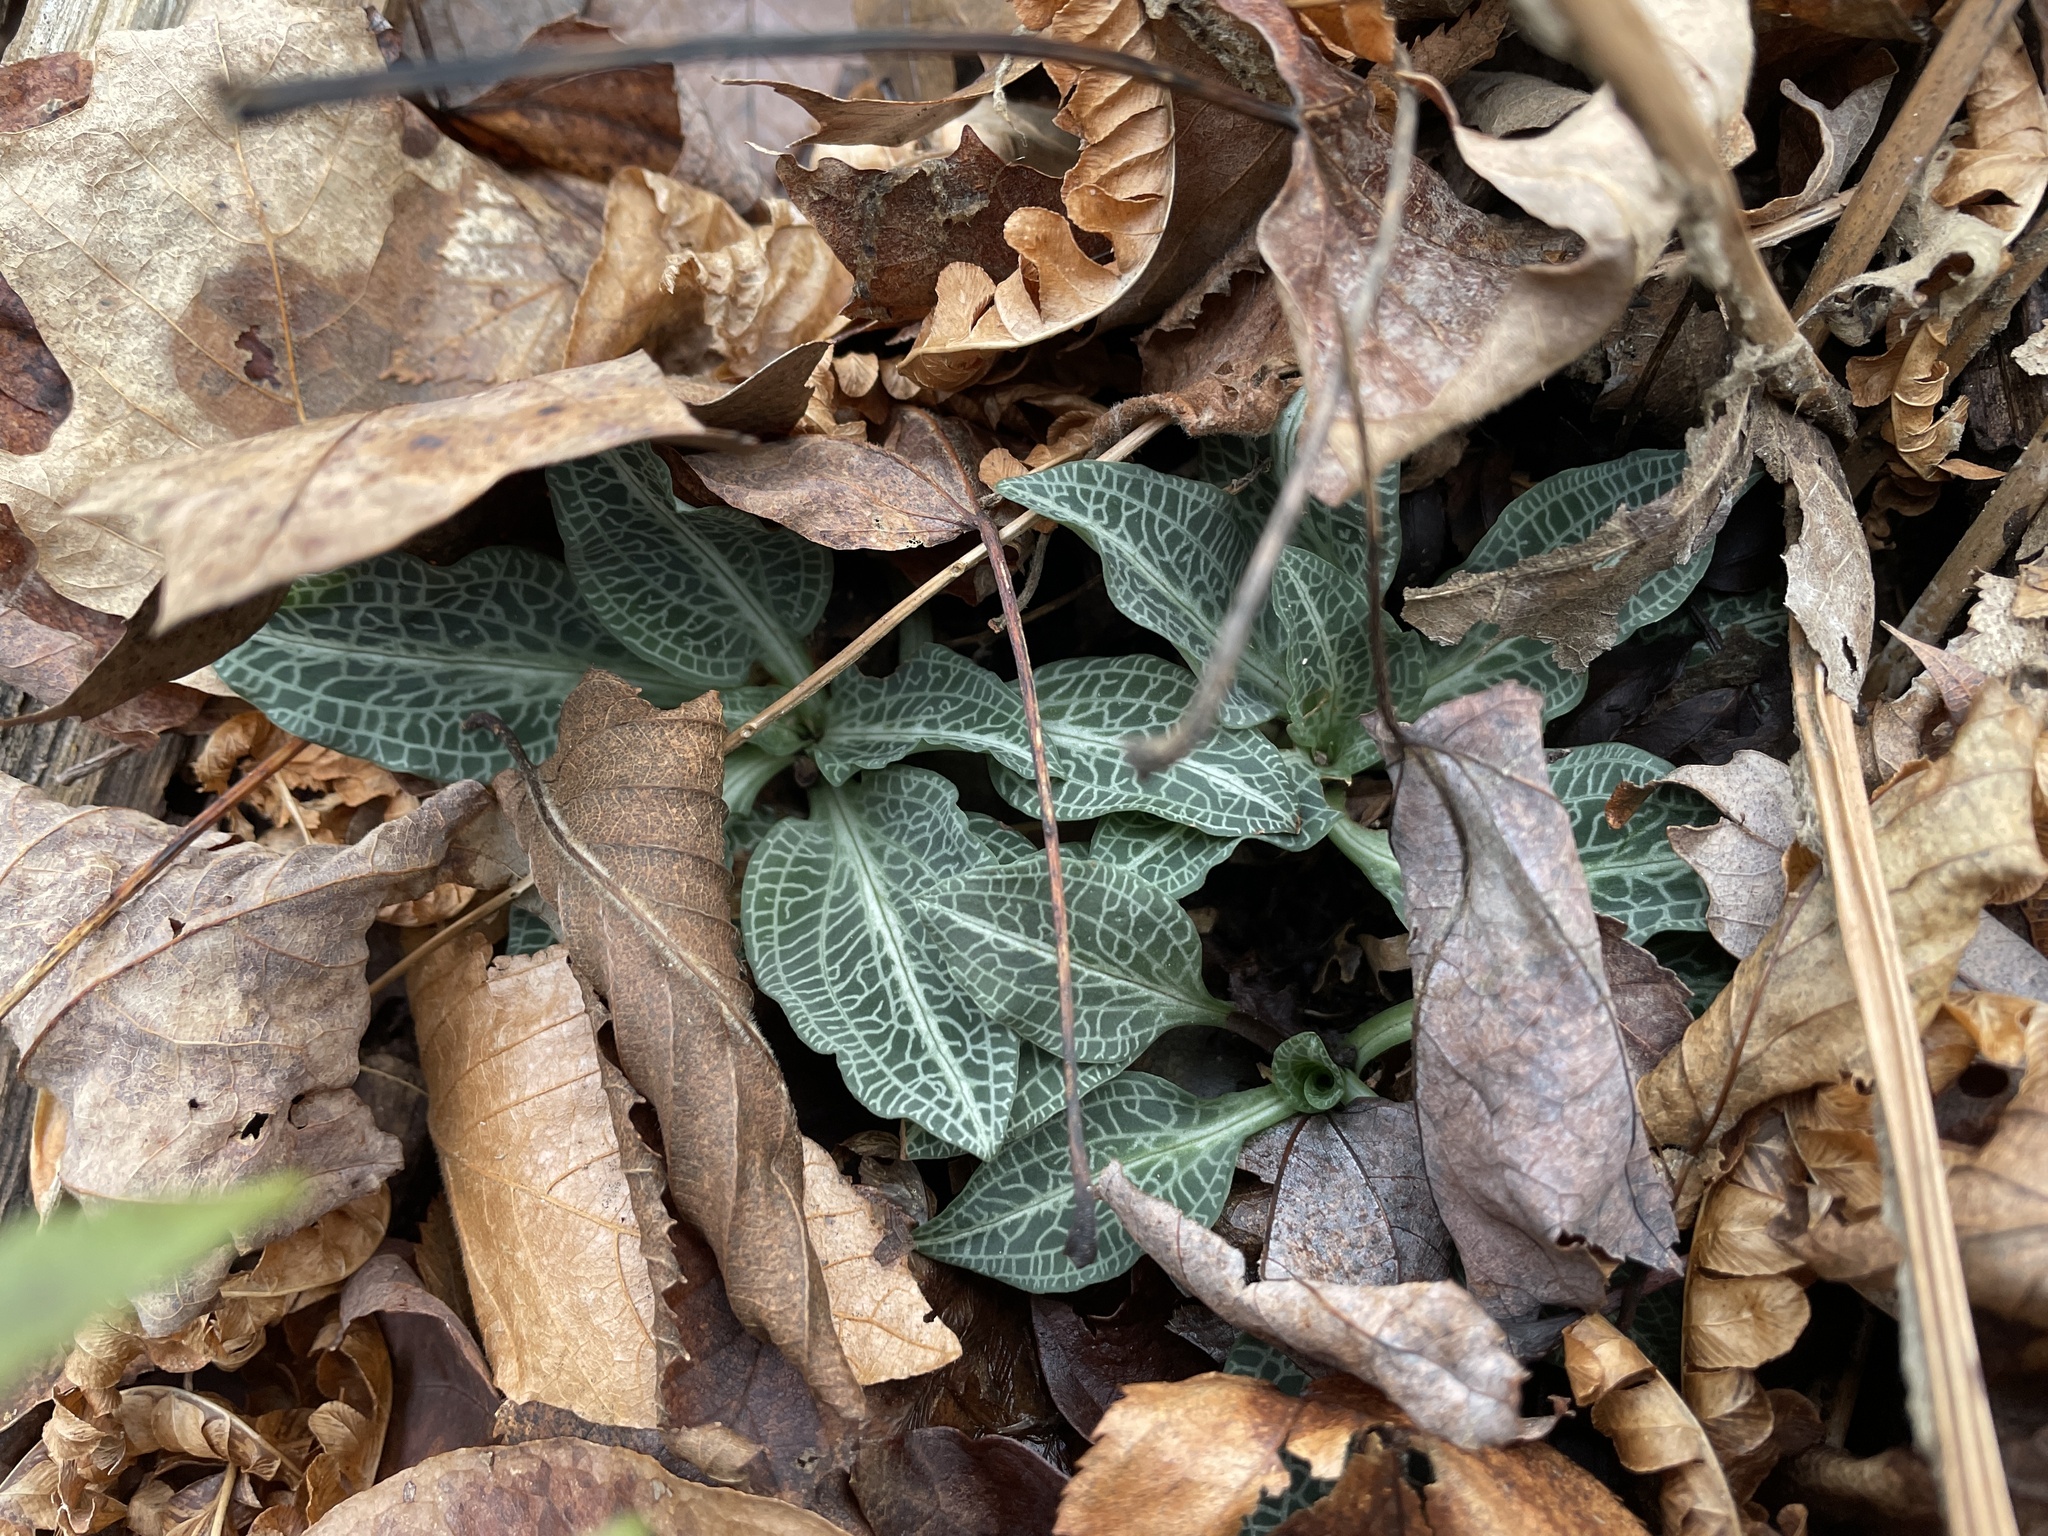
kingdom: Plantae
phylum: Tracheophyta
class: Liliopsida
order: Asparagales
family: Orchidaceae
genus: Goodyera
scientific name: Goodyera pubescens
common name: Downy rattlesnake-plantain
